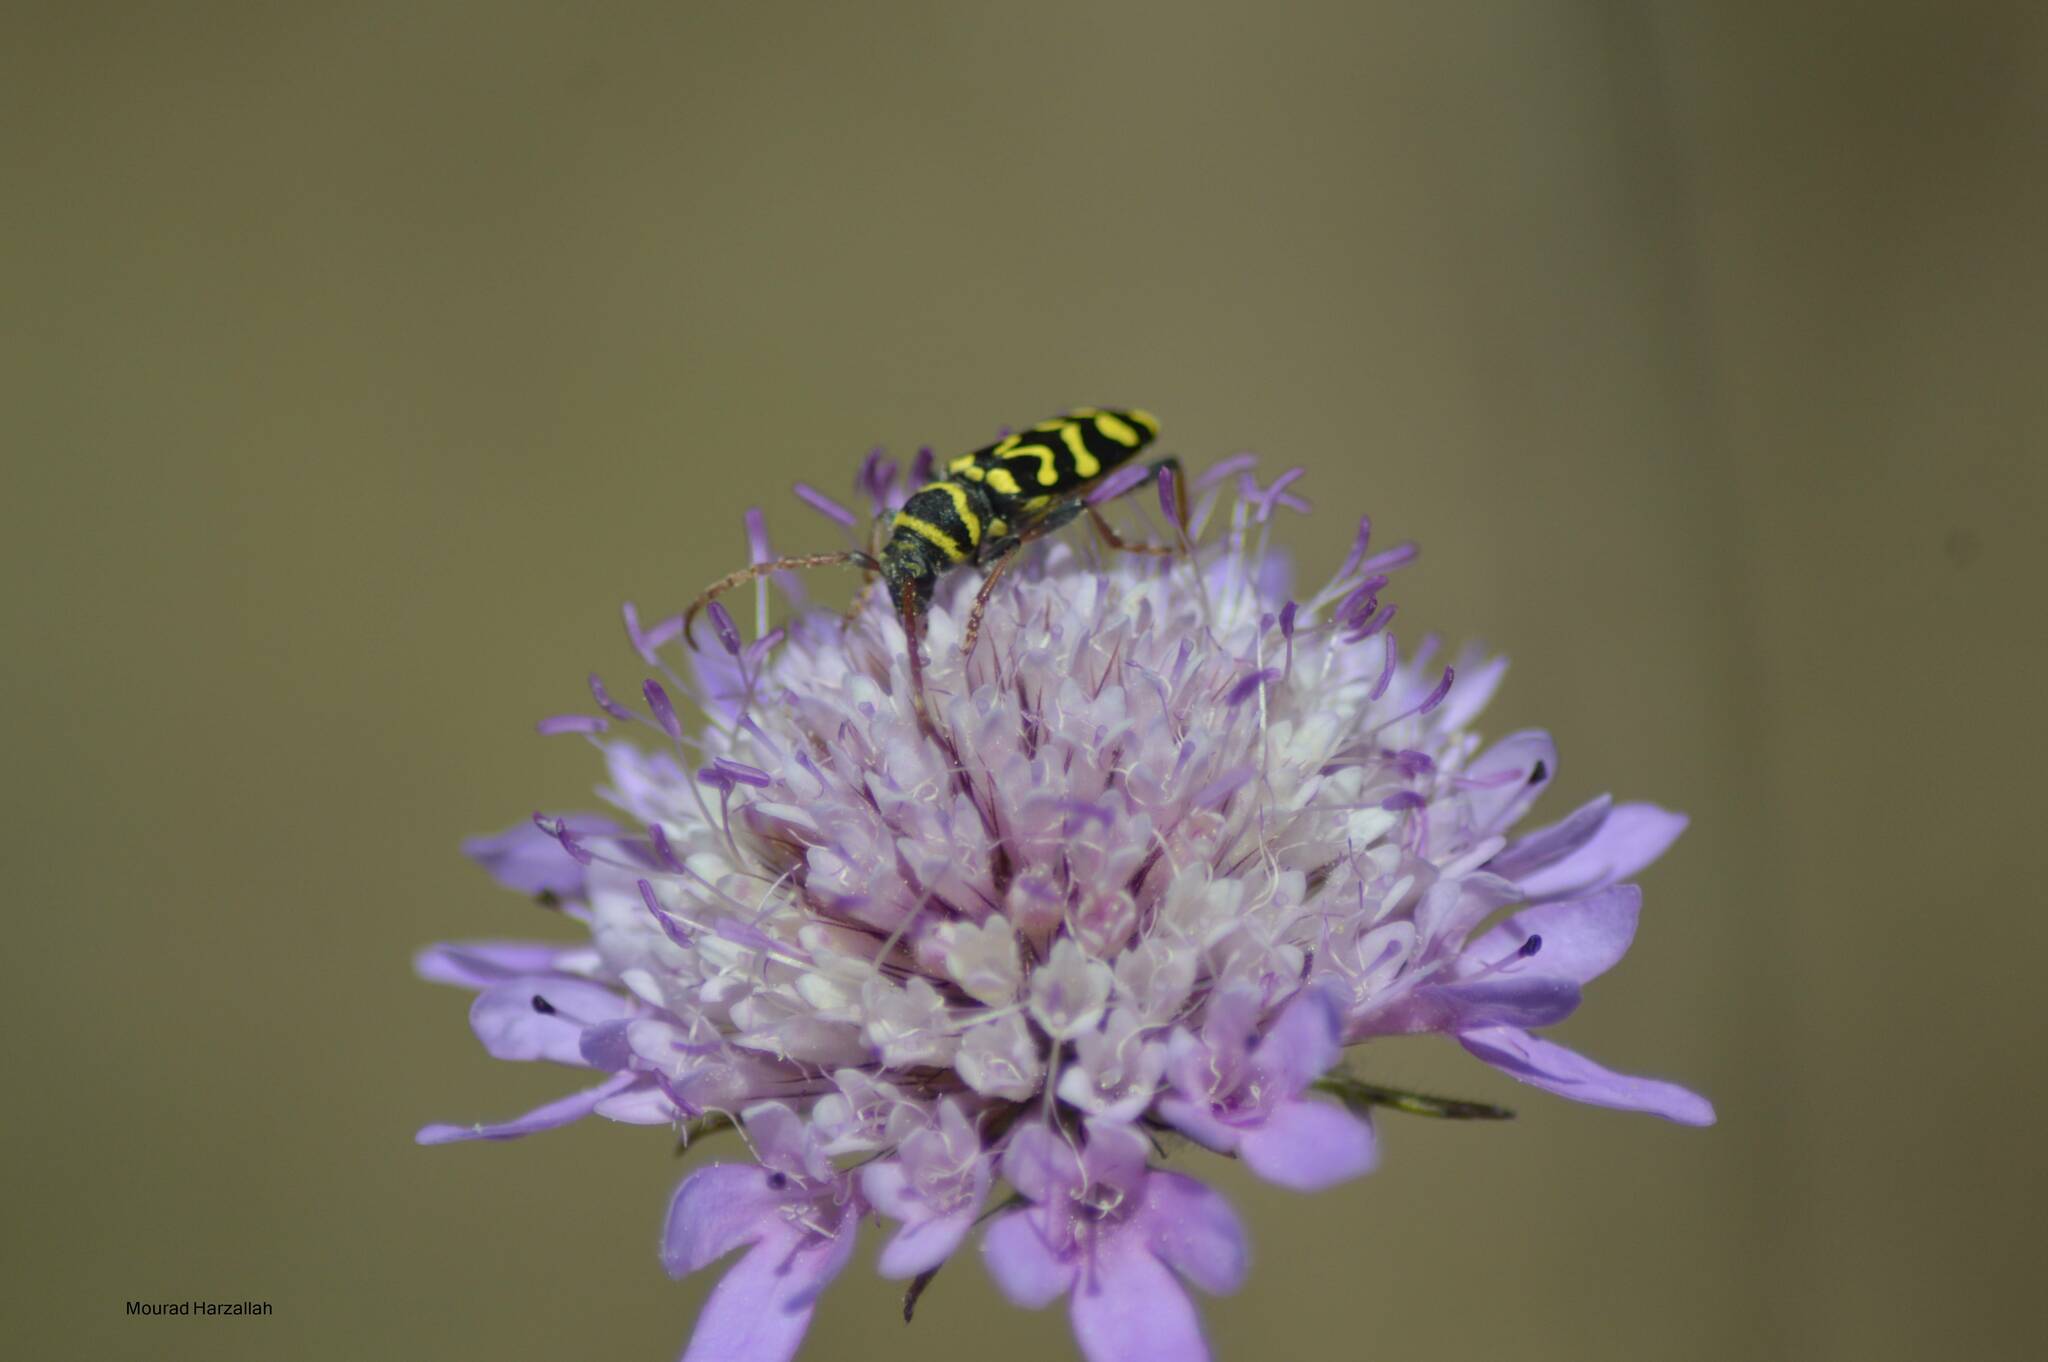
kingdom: Animalia
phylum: Arthropoda
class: Insecta
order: Coleoptera
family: Cerambycidae
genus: Neoplagionotus
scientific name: Neoplagionotus scalaris
